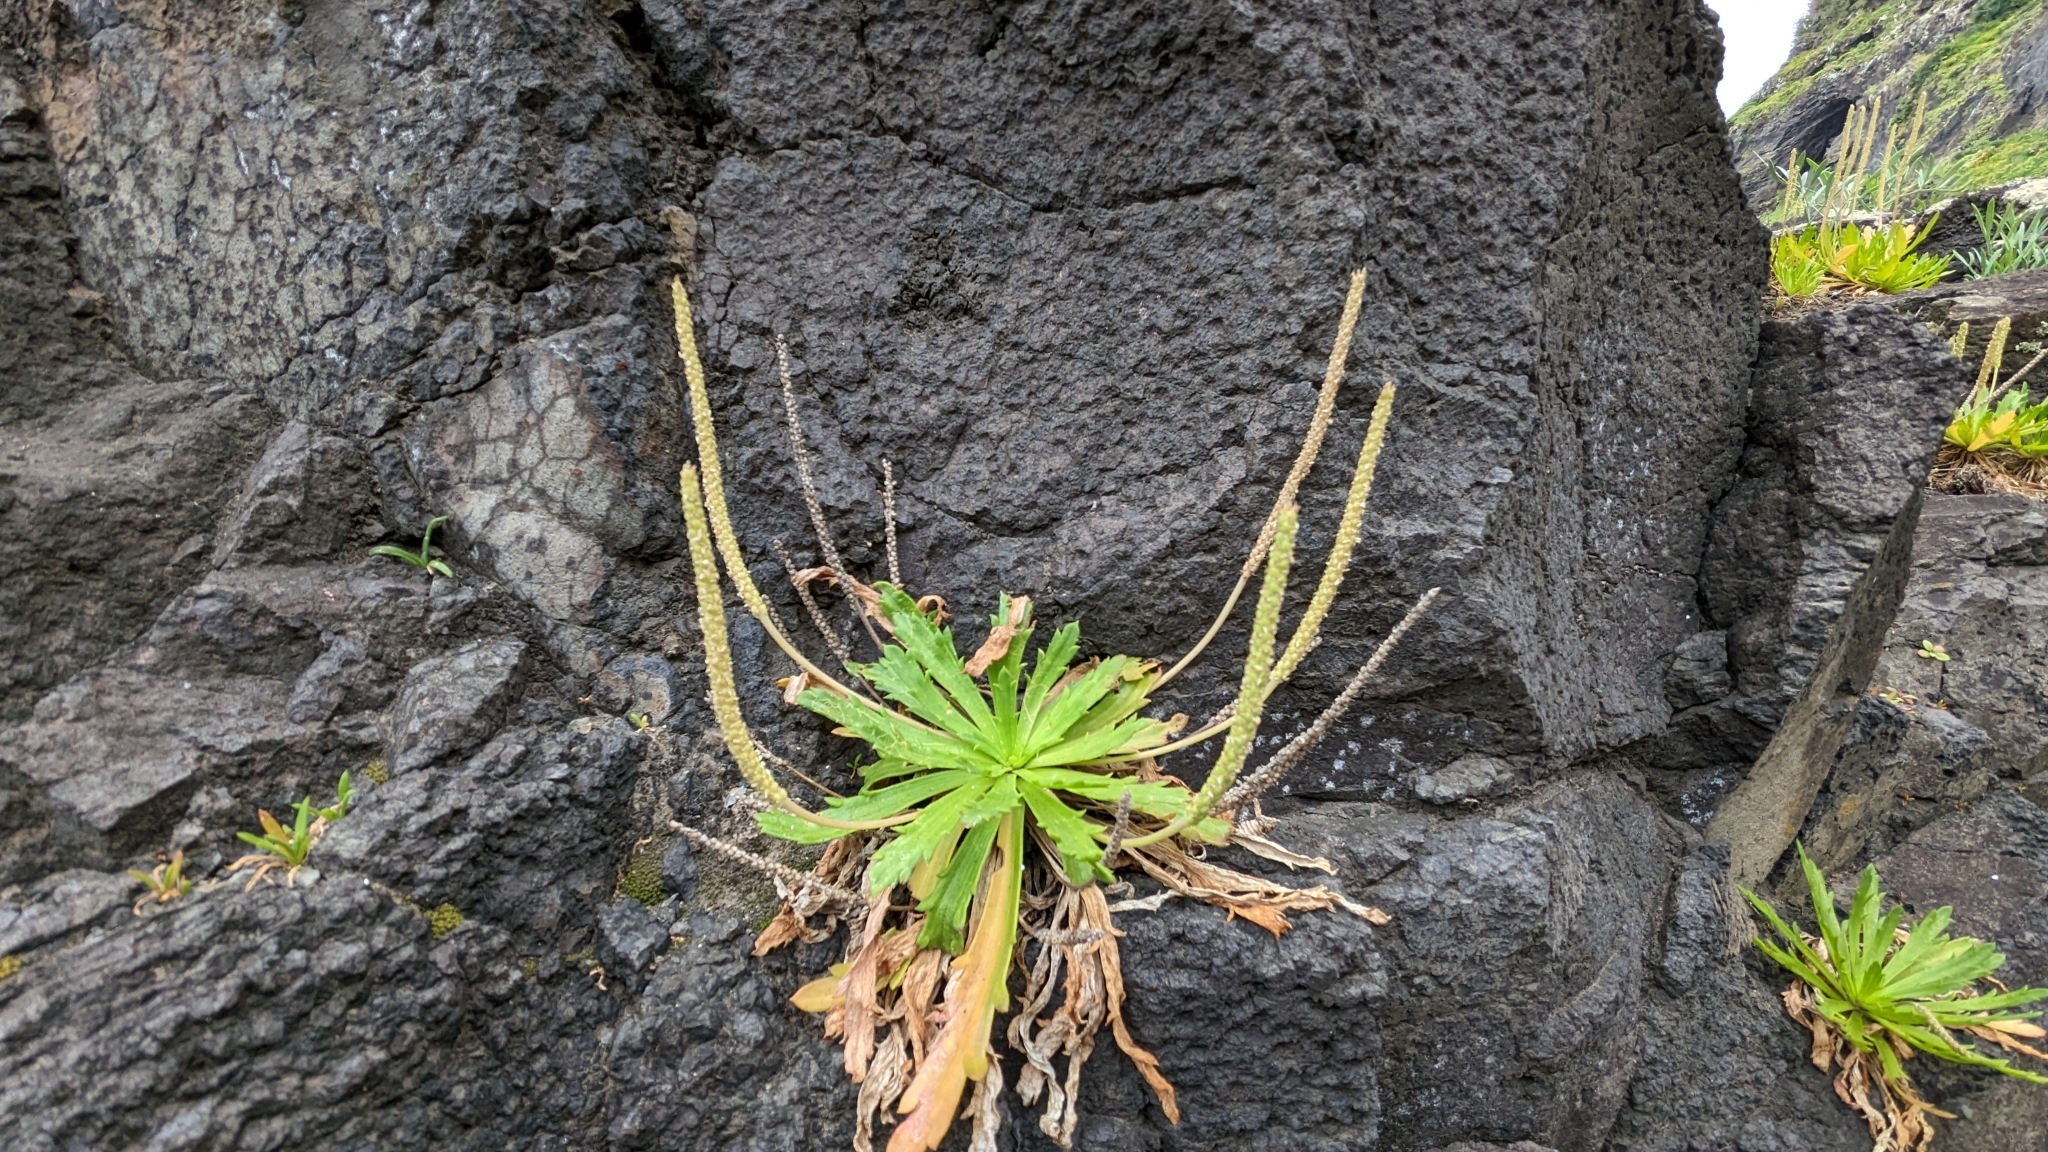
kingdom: Plantae
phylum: Tracheophyta
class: Magnoliopsida
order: Lamiales
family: Plantaginaceae
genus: Plantago
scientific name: Plantago coronopus
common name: Buck's-horn plantain
